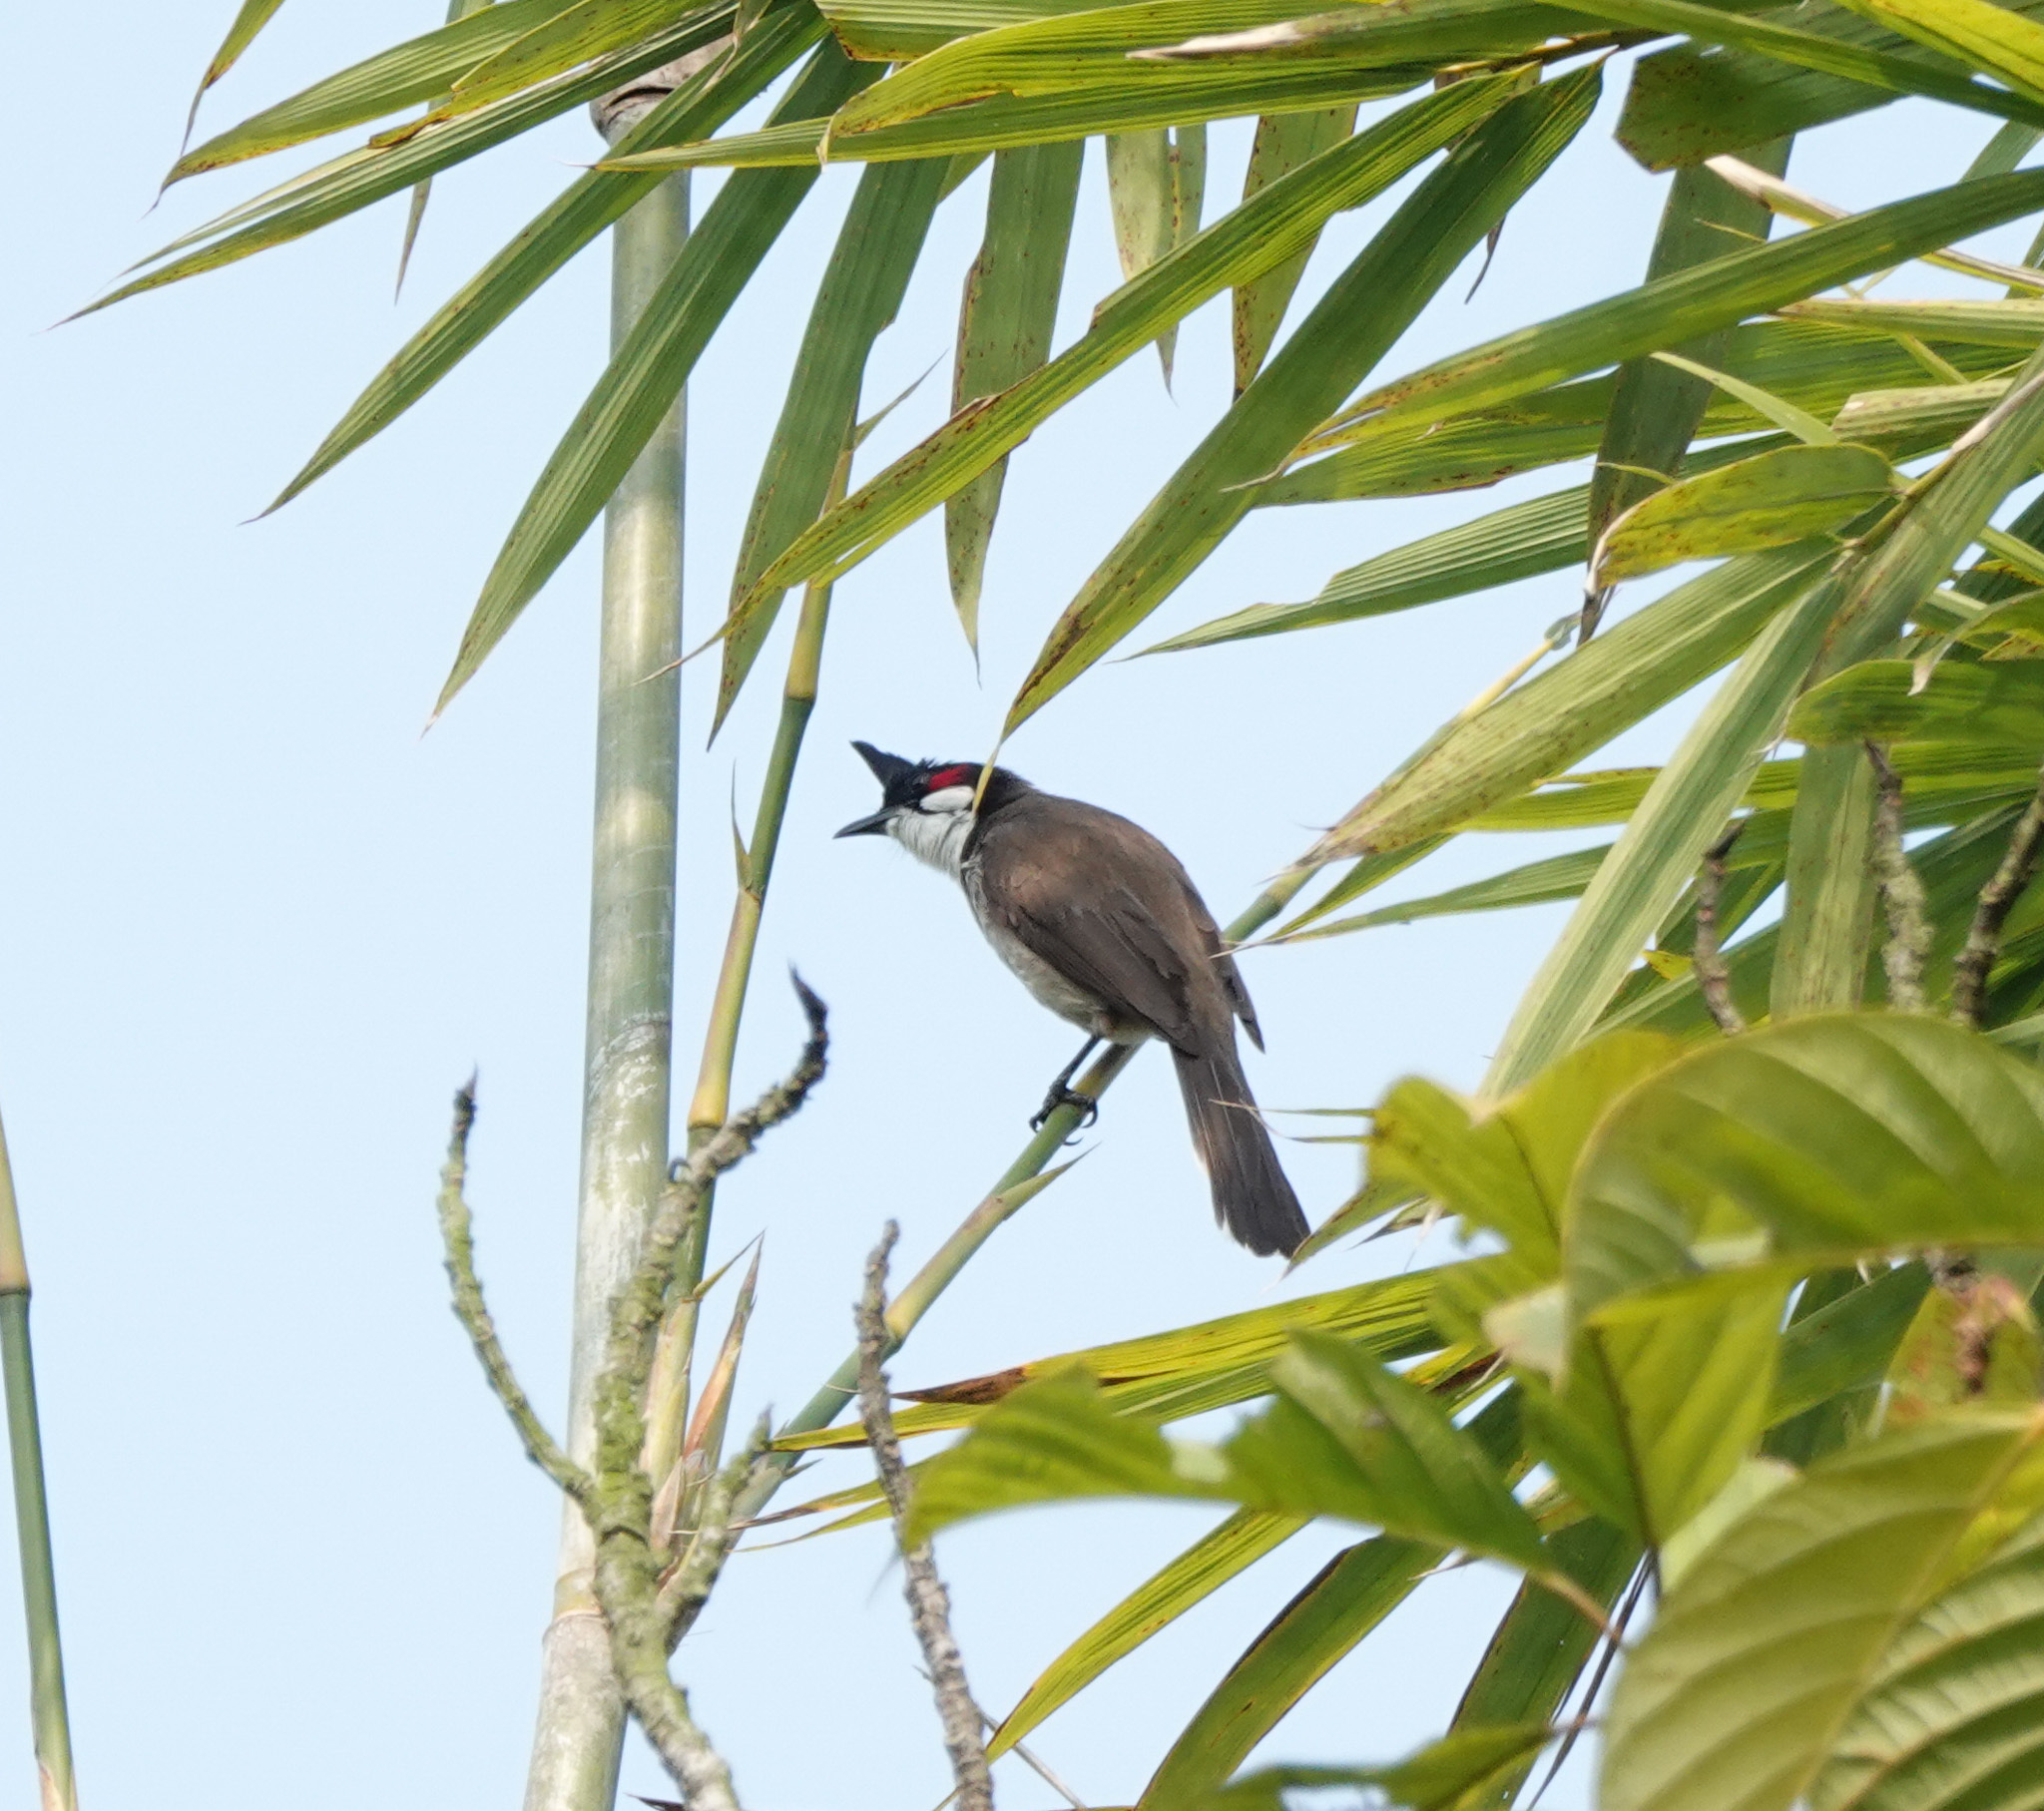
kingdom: Animalia
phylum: Chordata
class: Aves
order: Passeriformes
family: Pycnonotidae
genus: Pycnonotus
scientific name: Pycnonotus jocosus
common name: Red-whiskered bulbul
